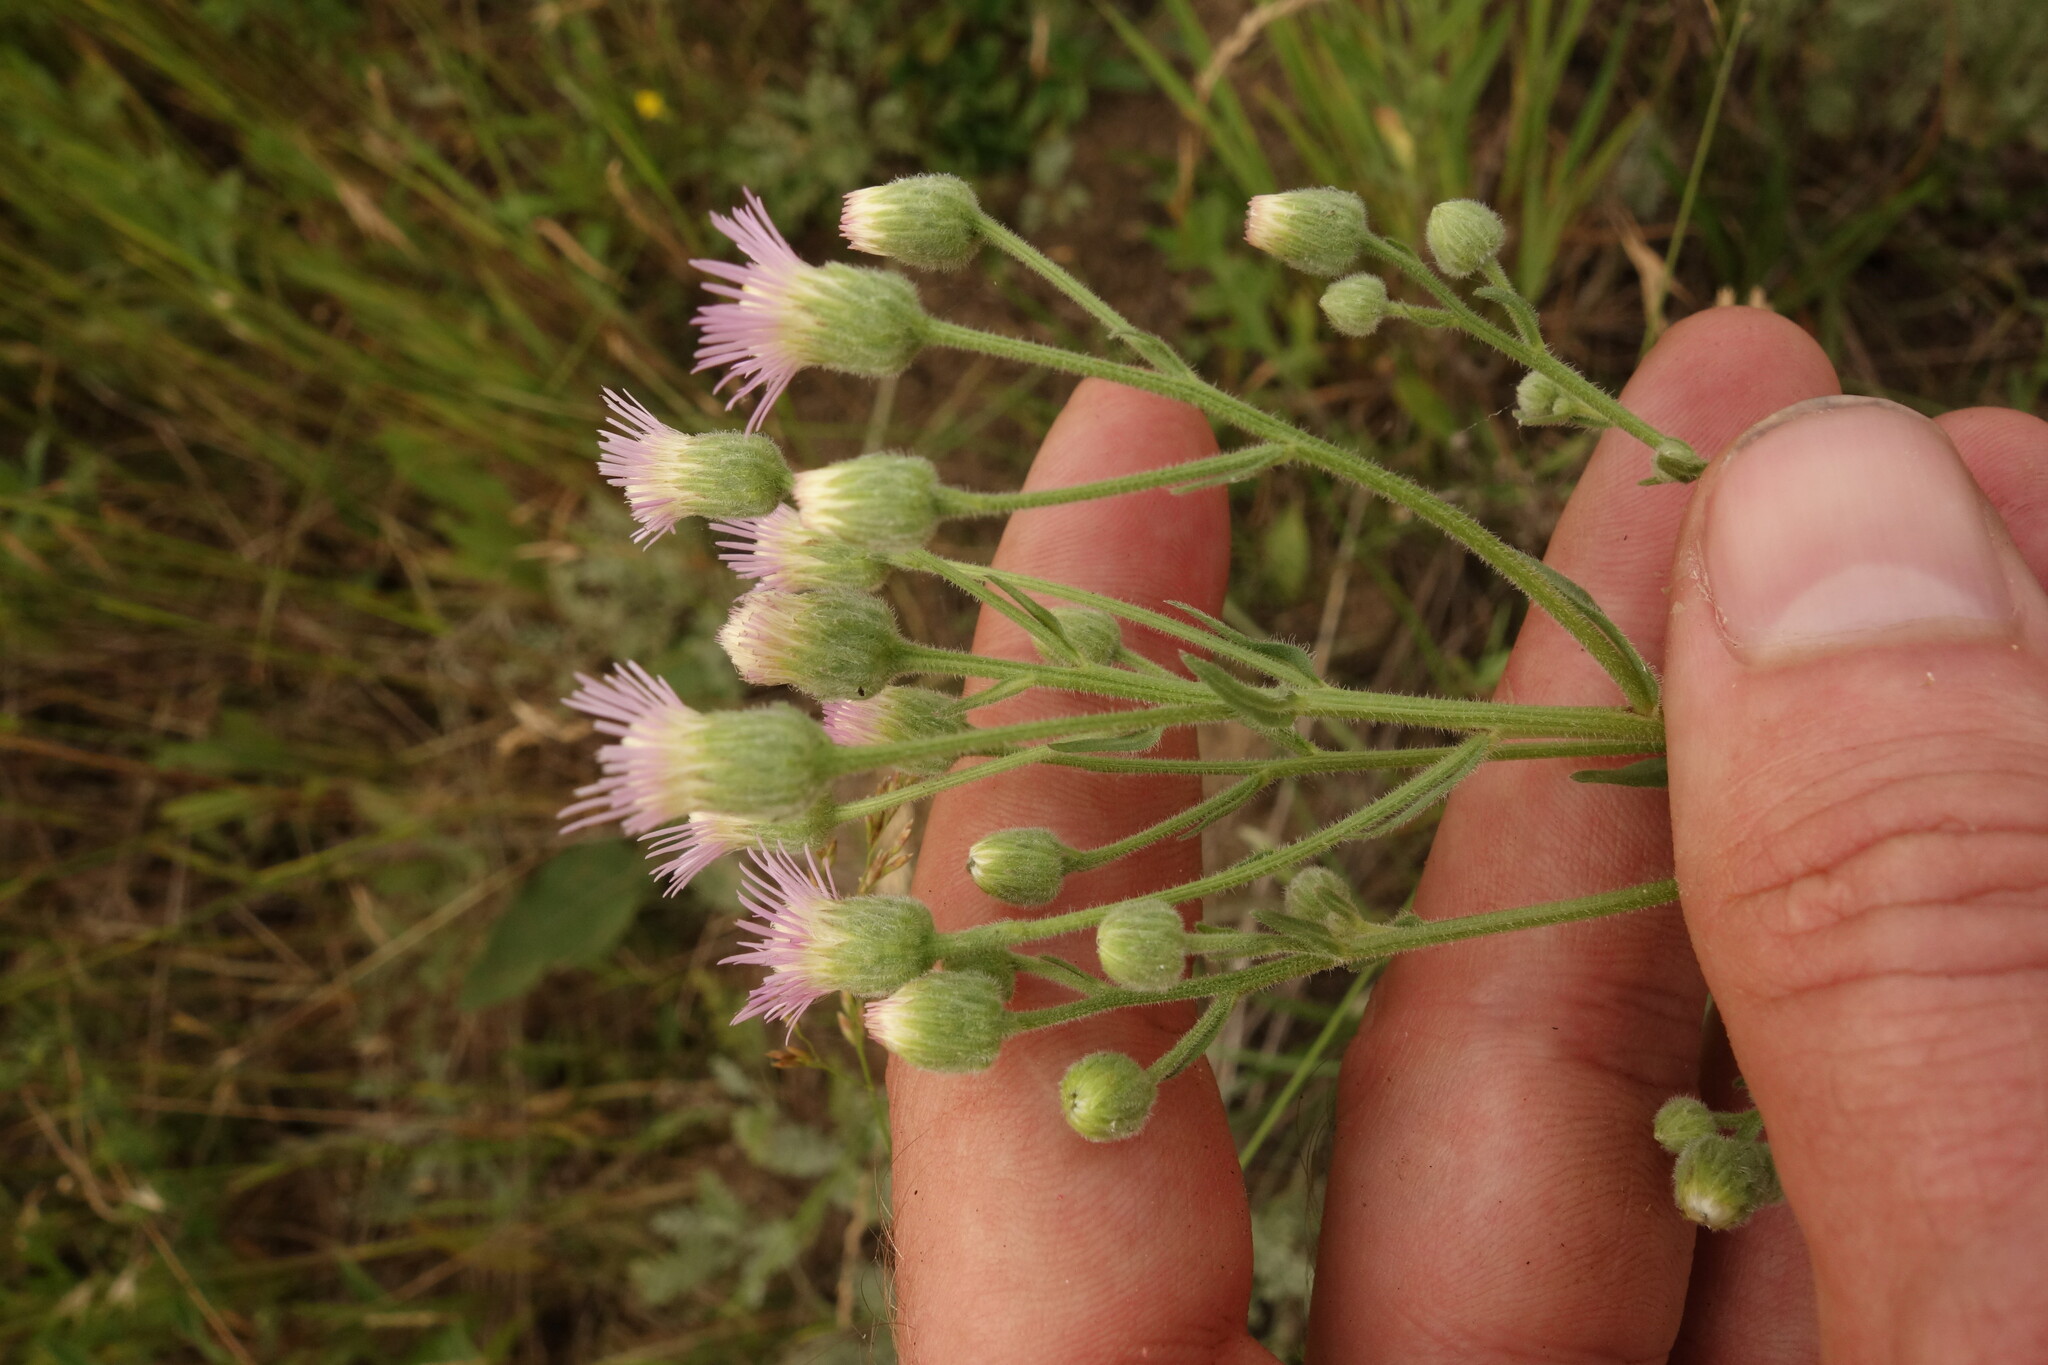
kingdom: Plantae
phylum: Tracheophyta
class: Magnoliopsida
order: Asterales
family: Asteraceae
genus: Erigeron
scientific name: Erigeron acris
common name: Blue fleabane
